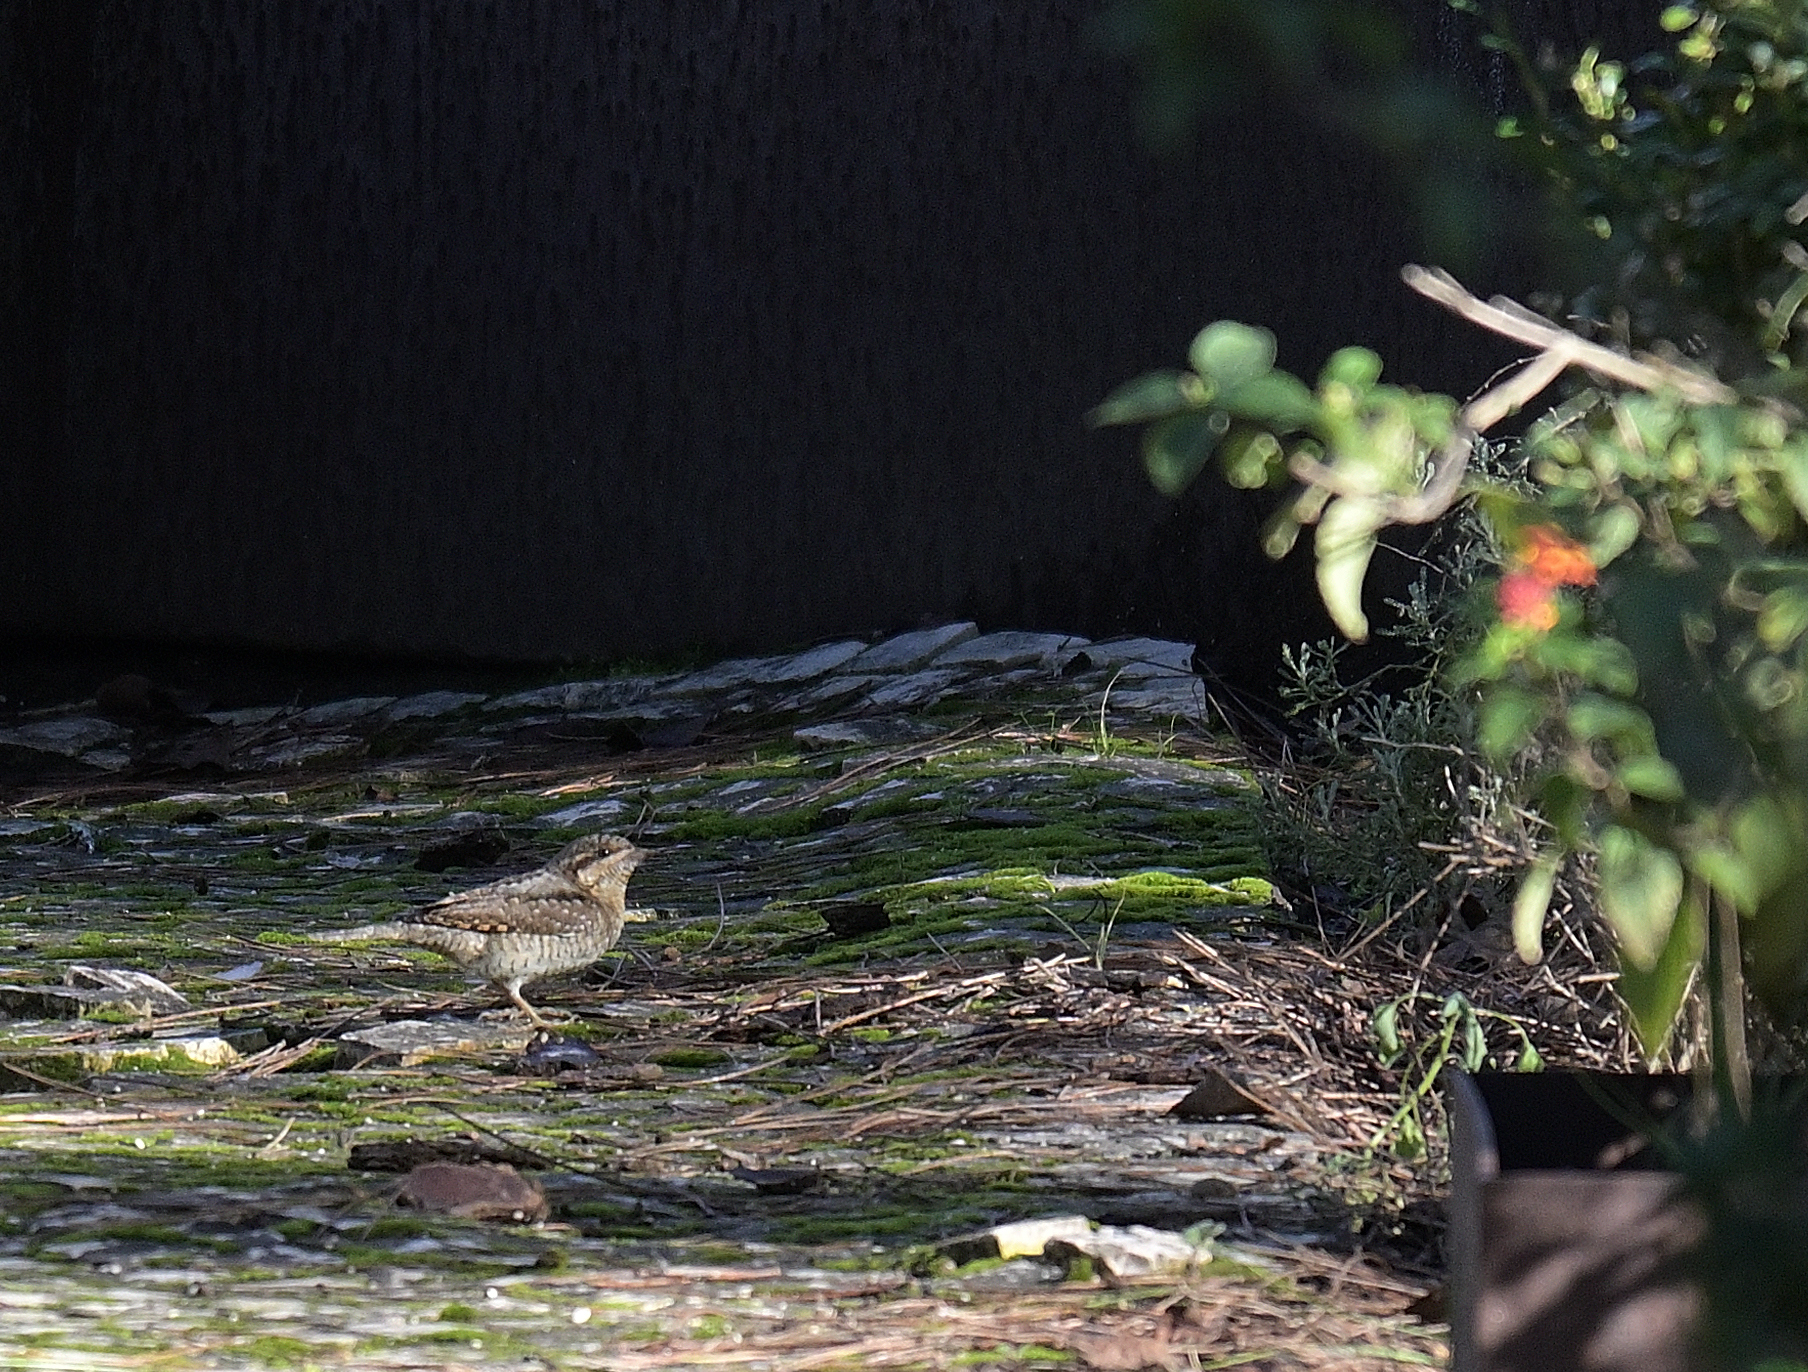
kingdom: Animalia
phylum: Chordata
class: Aves
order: Piciformes
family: Picidae
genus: Jynx
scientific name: Jynx torquilla
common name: Eurasian wryneck
